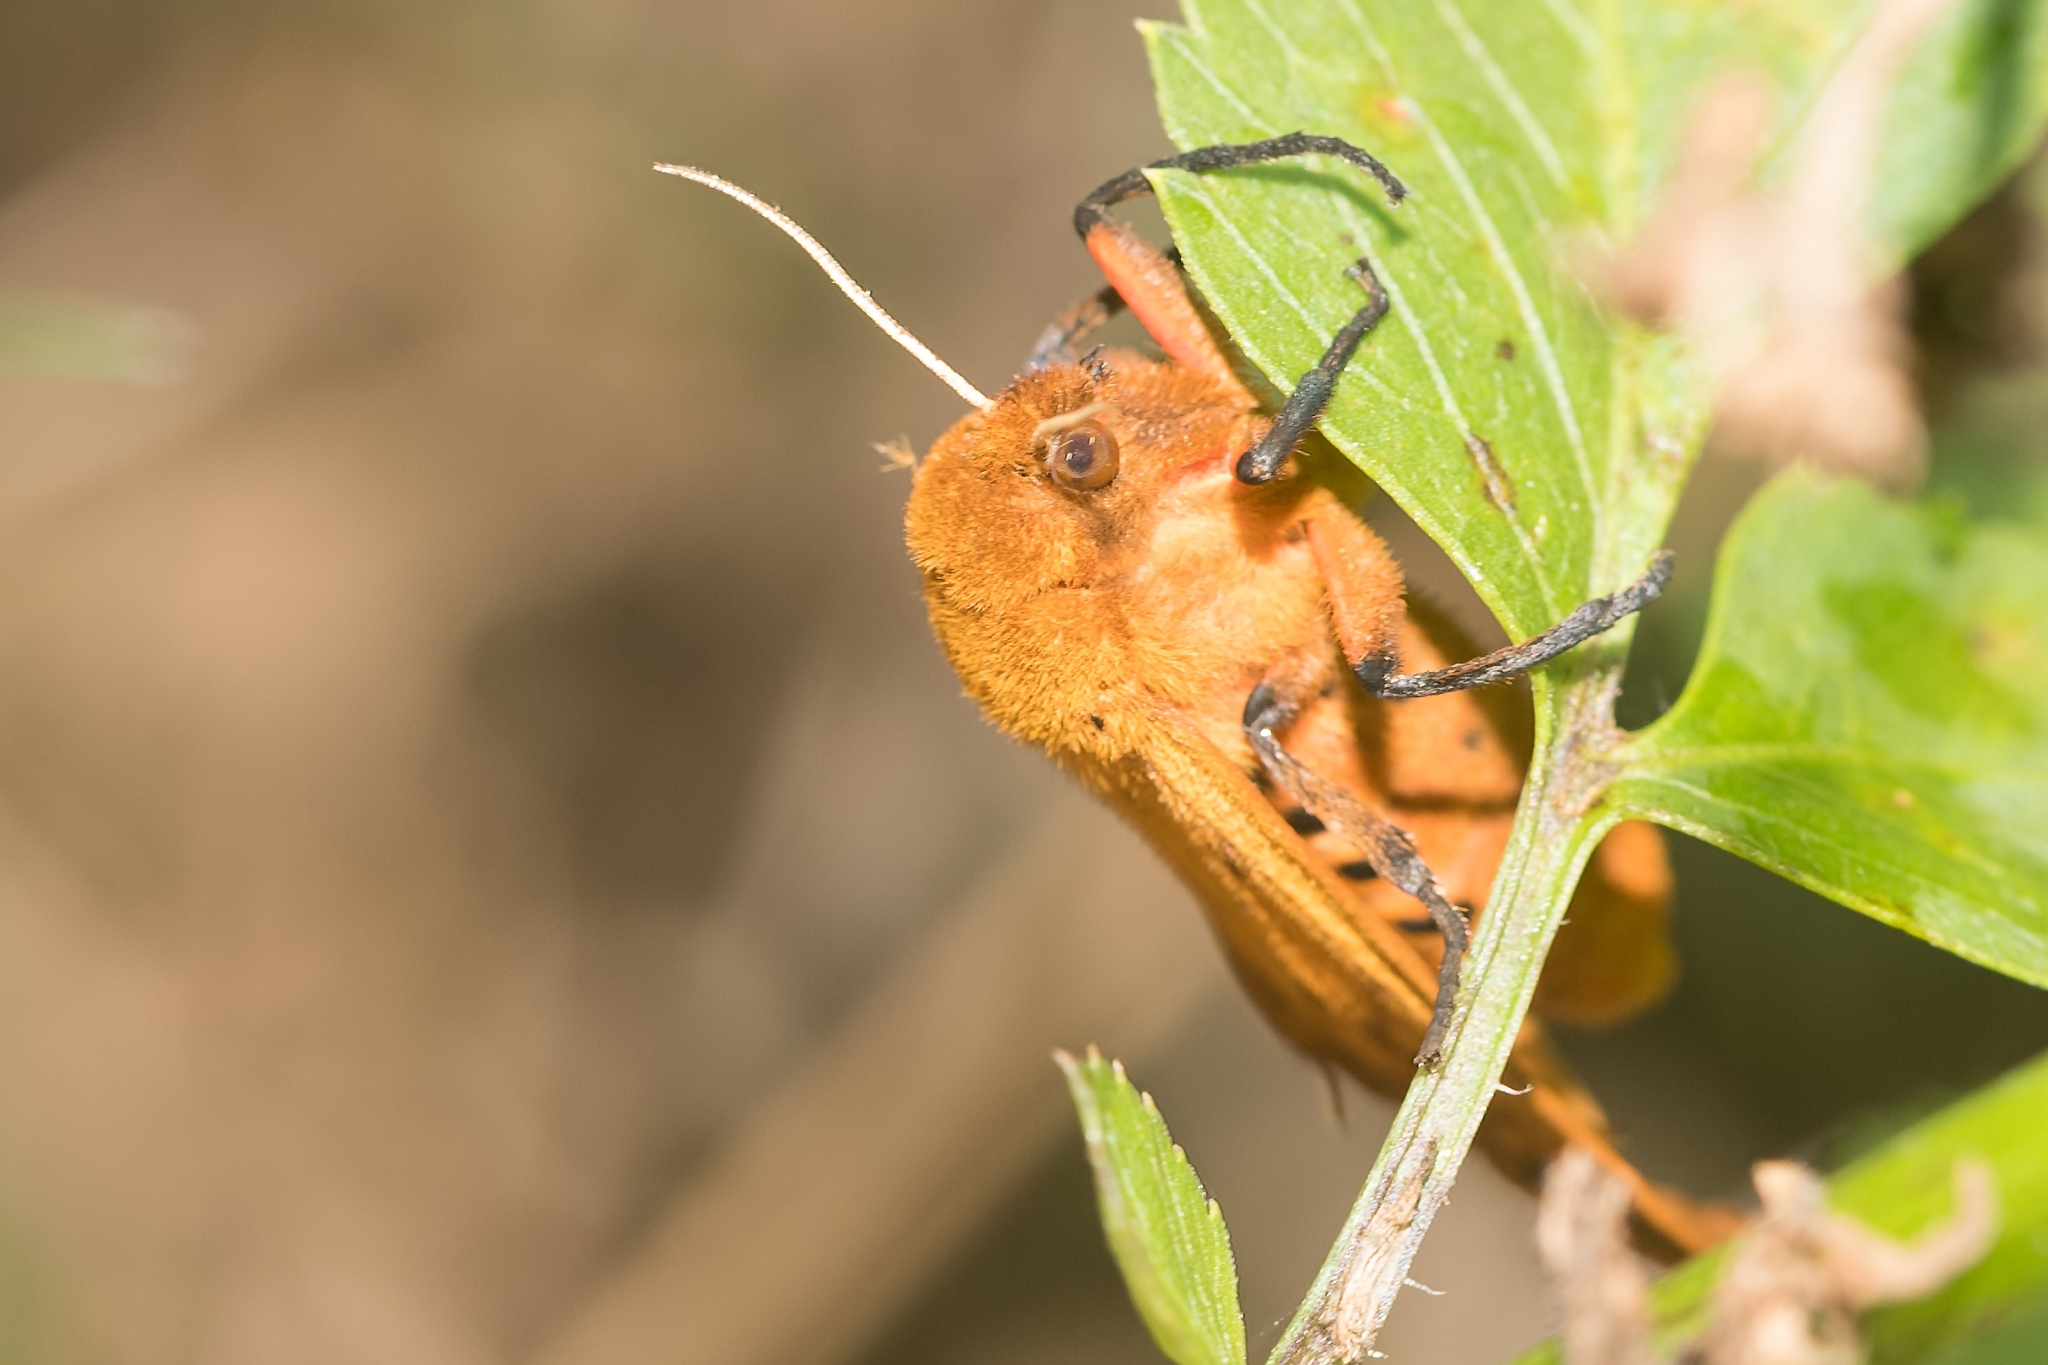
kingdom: Animalia
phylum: Arthropoda
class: Insecta
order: Lepidoptera
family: Erebidae
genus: Pyrrharctia
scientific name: Pyrrharctia isabella
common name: Isabella tiger moth
